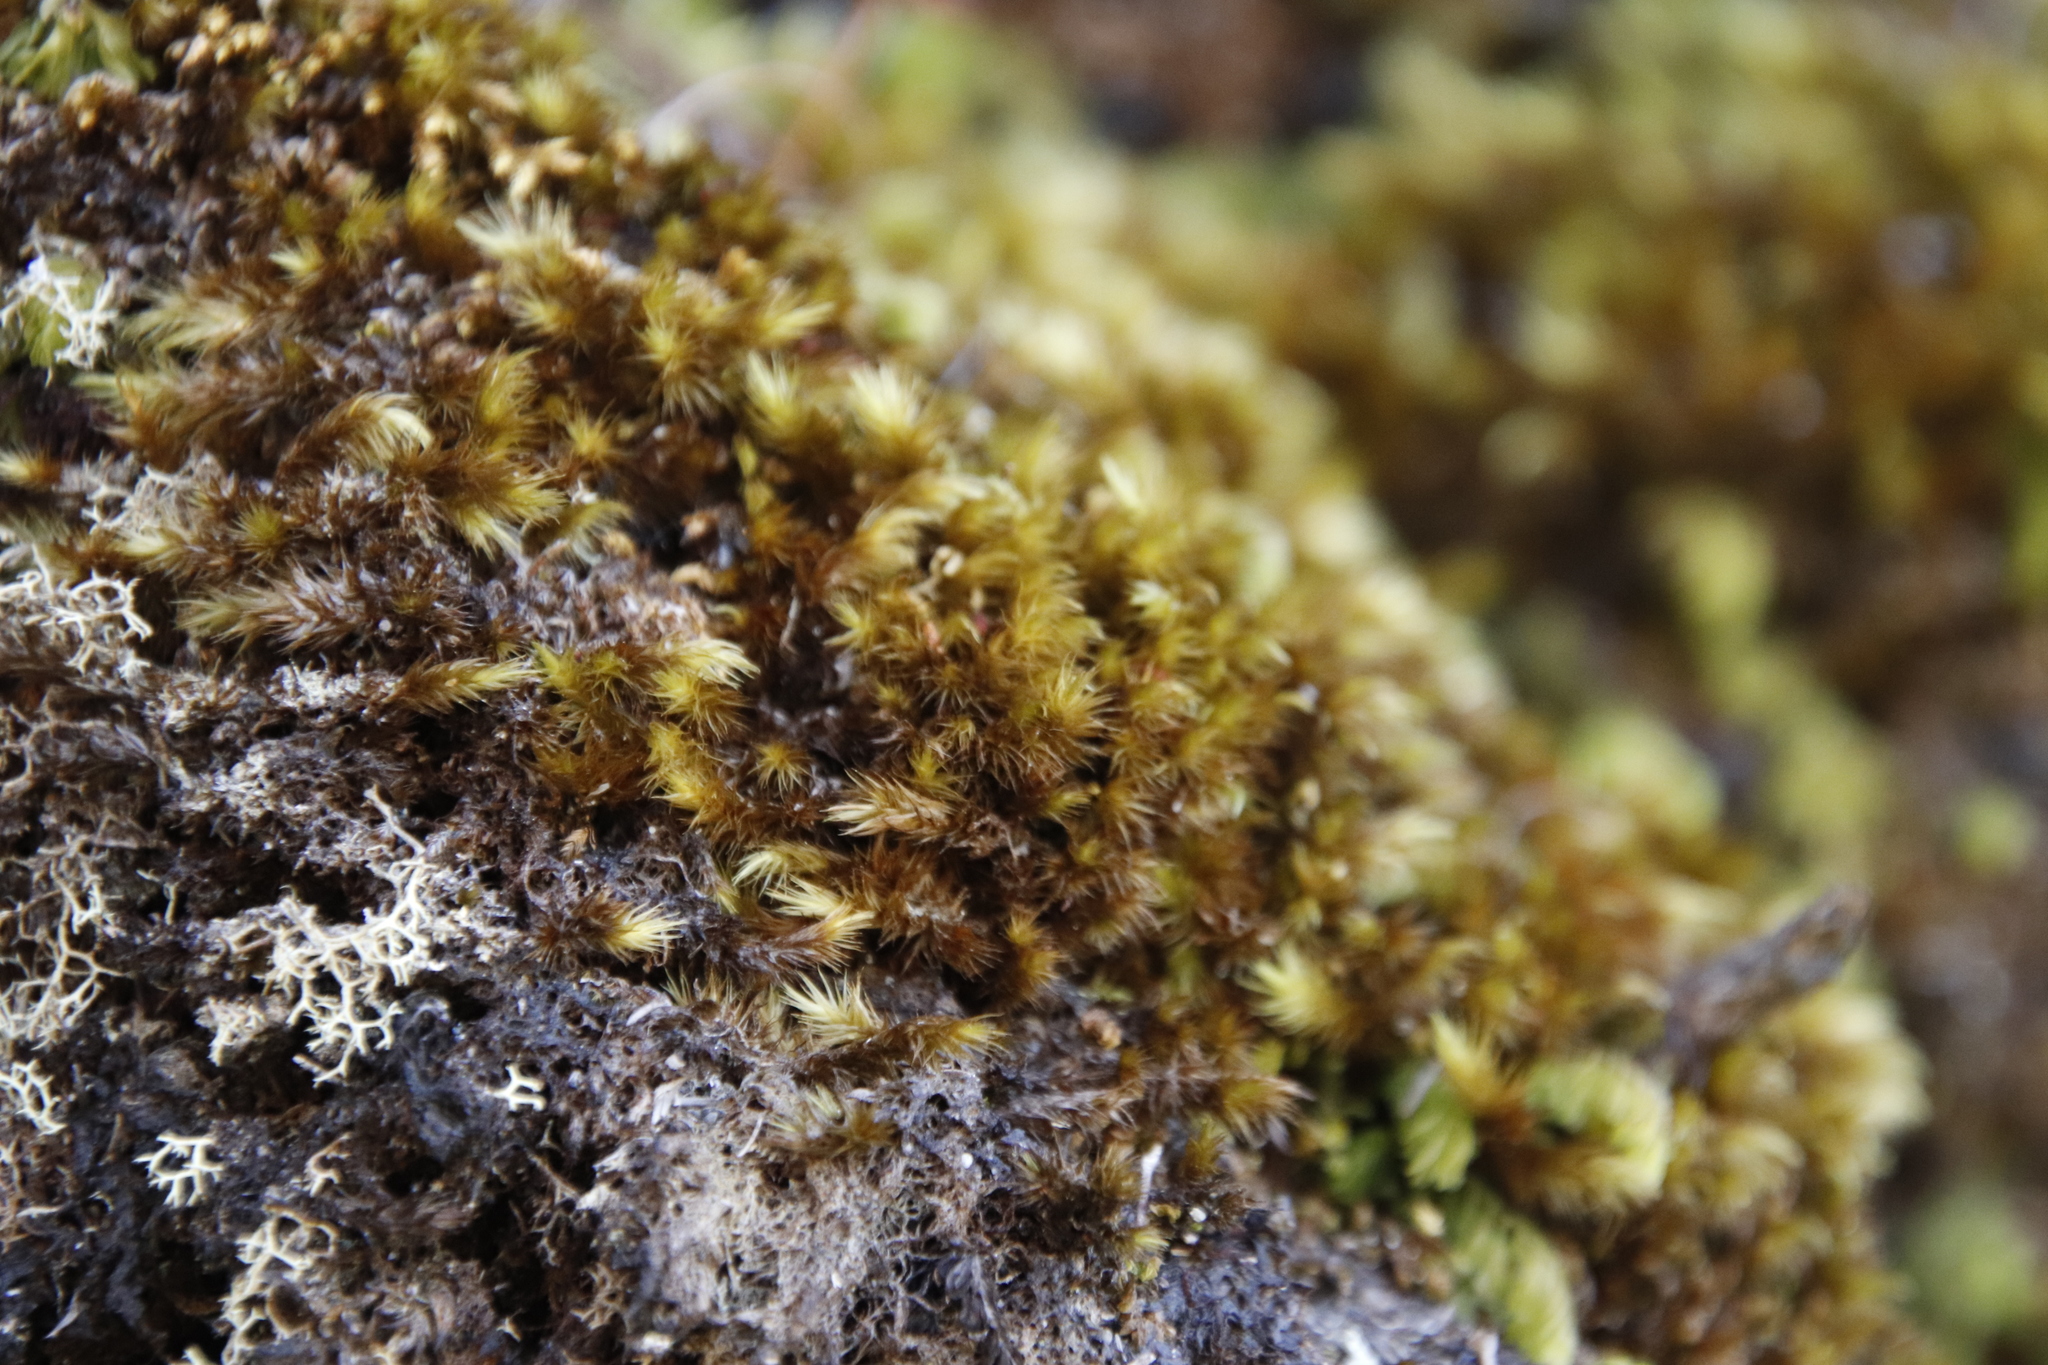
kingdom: Plantae
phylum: Bryophyta
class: Bryopsida
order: Dicranales
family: Dicranaceae
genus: Dicranoloma
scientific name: Dicranoloma billardieri
